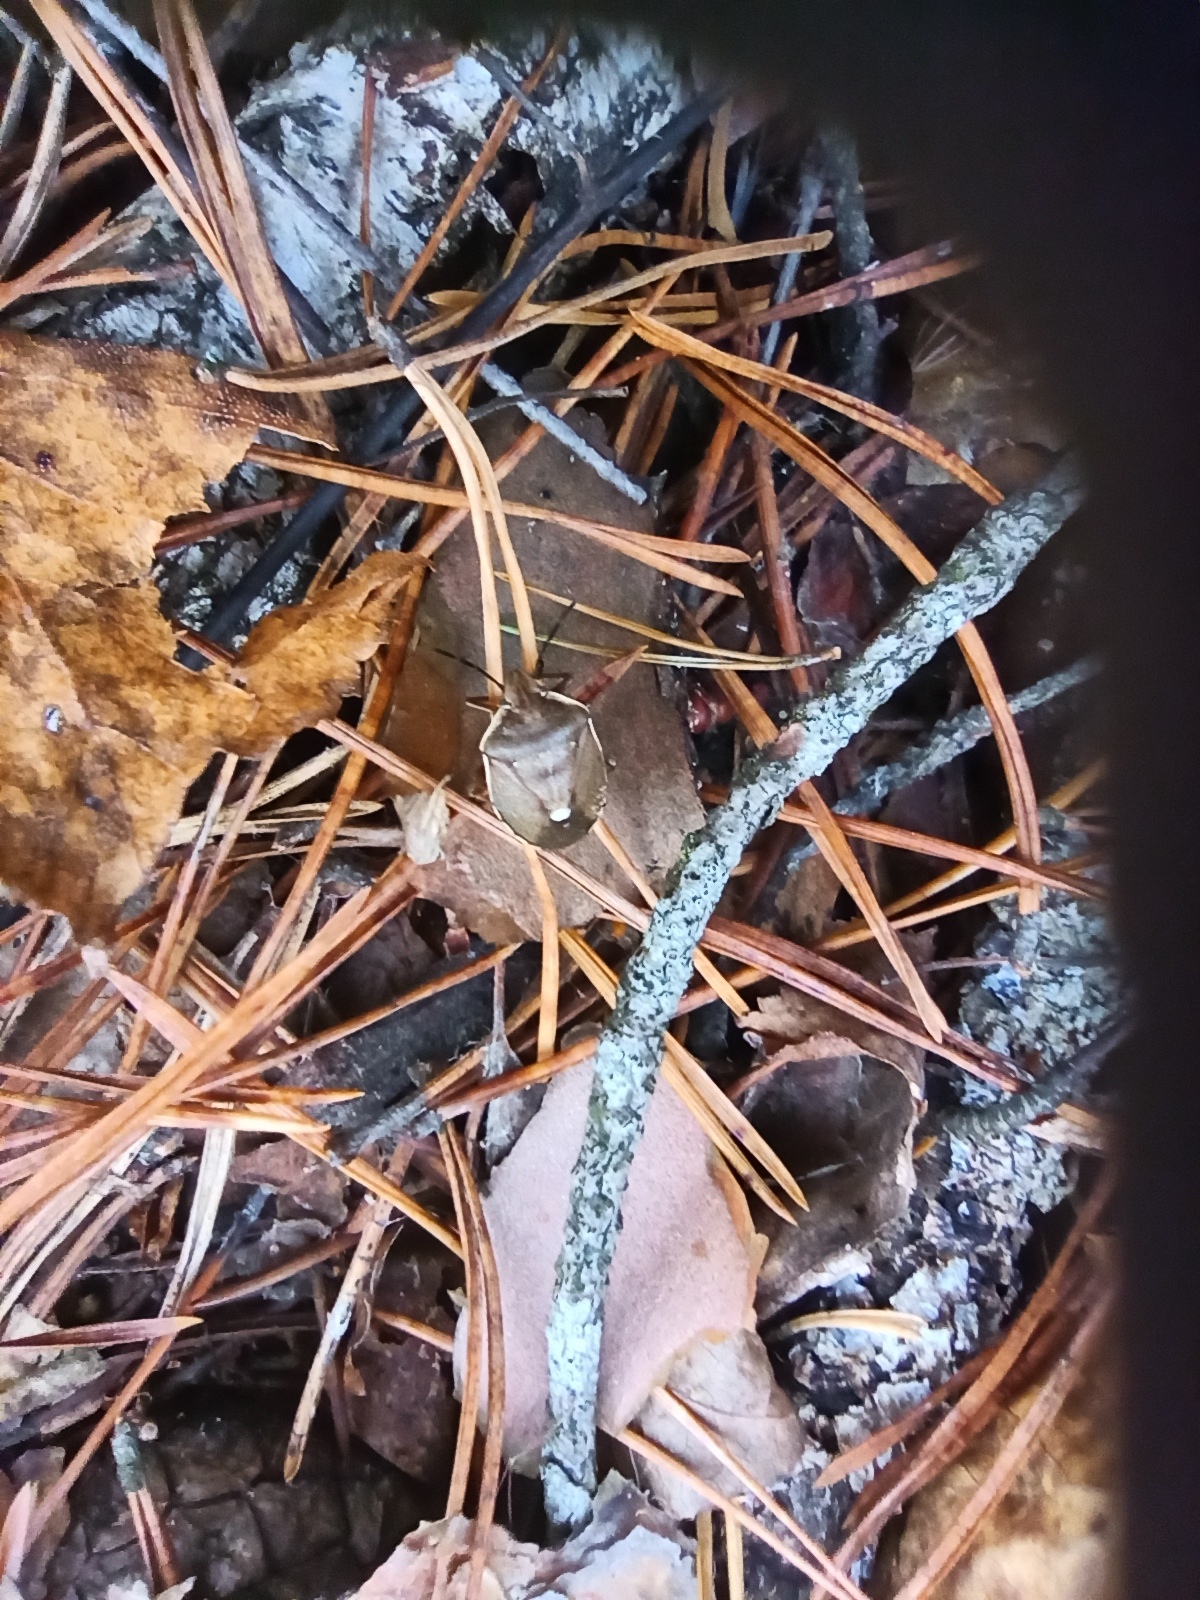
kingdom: Animalia
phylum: Arthropoda
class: Insecta
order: Hemiptera
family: Pentatomidae
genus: Chlorochroa
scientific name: Chlorochroa pinicola
